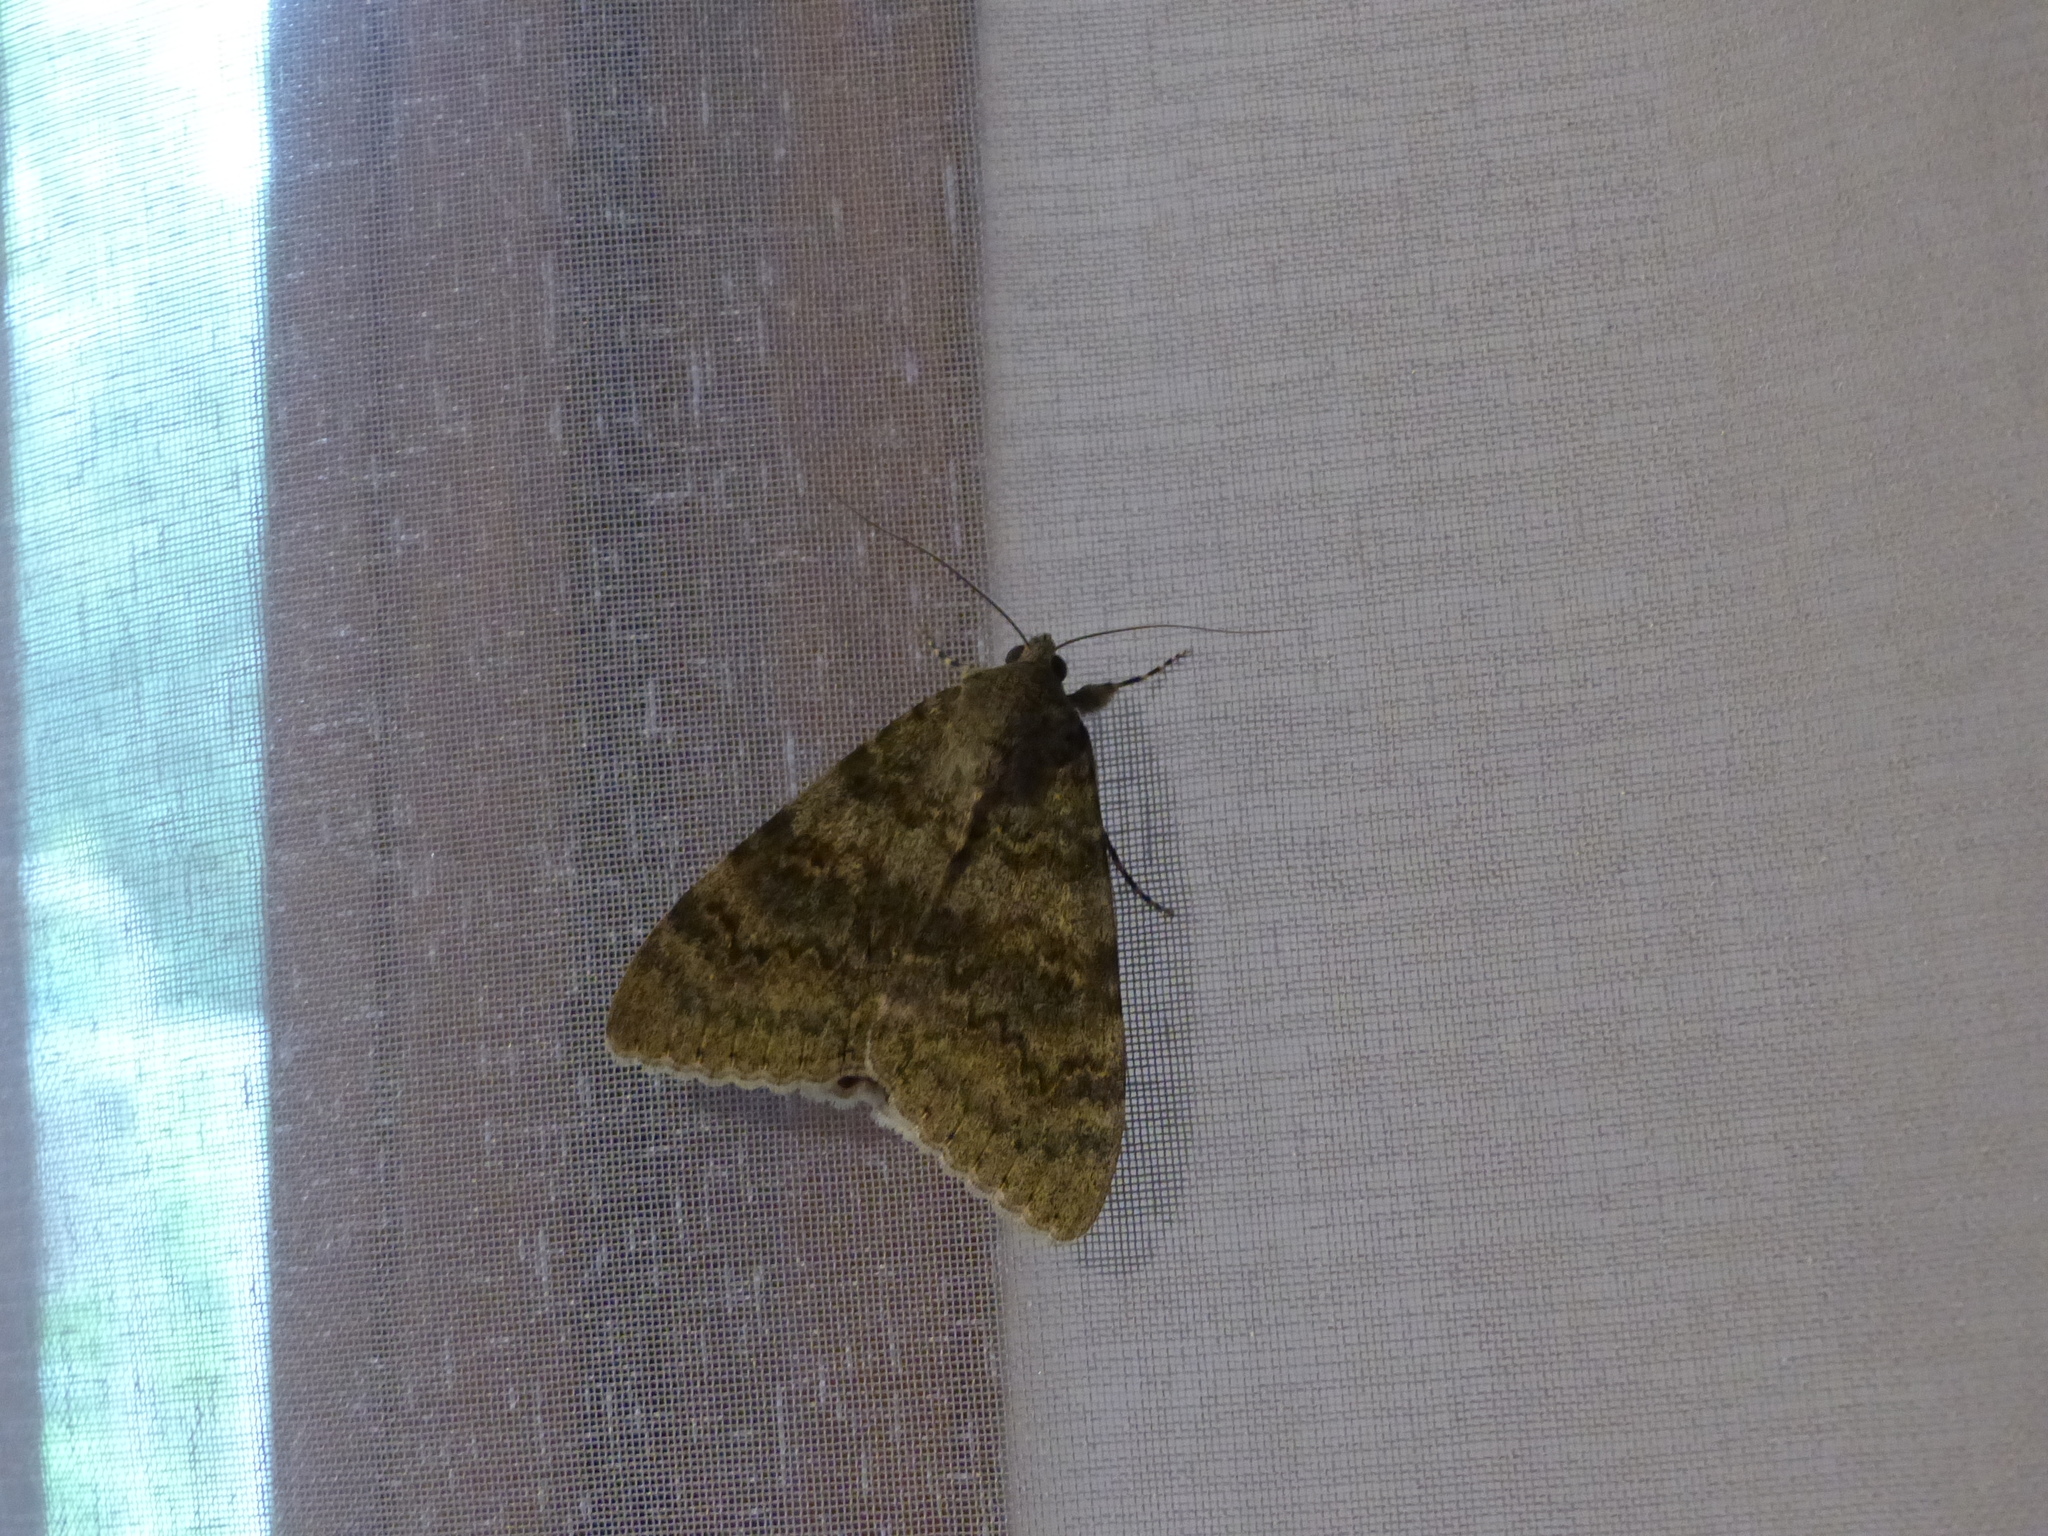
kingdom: Animalia
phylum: Arthropoda
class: Insecta
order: Lepidoptera
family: Erebidae
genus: Catocala
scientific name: Catocala elocata
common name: French red underwing
